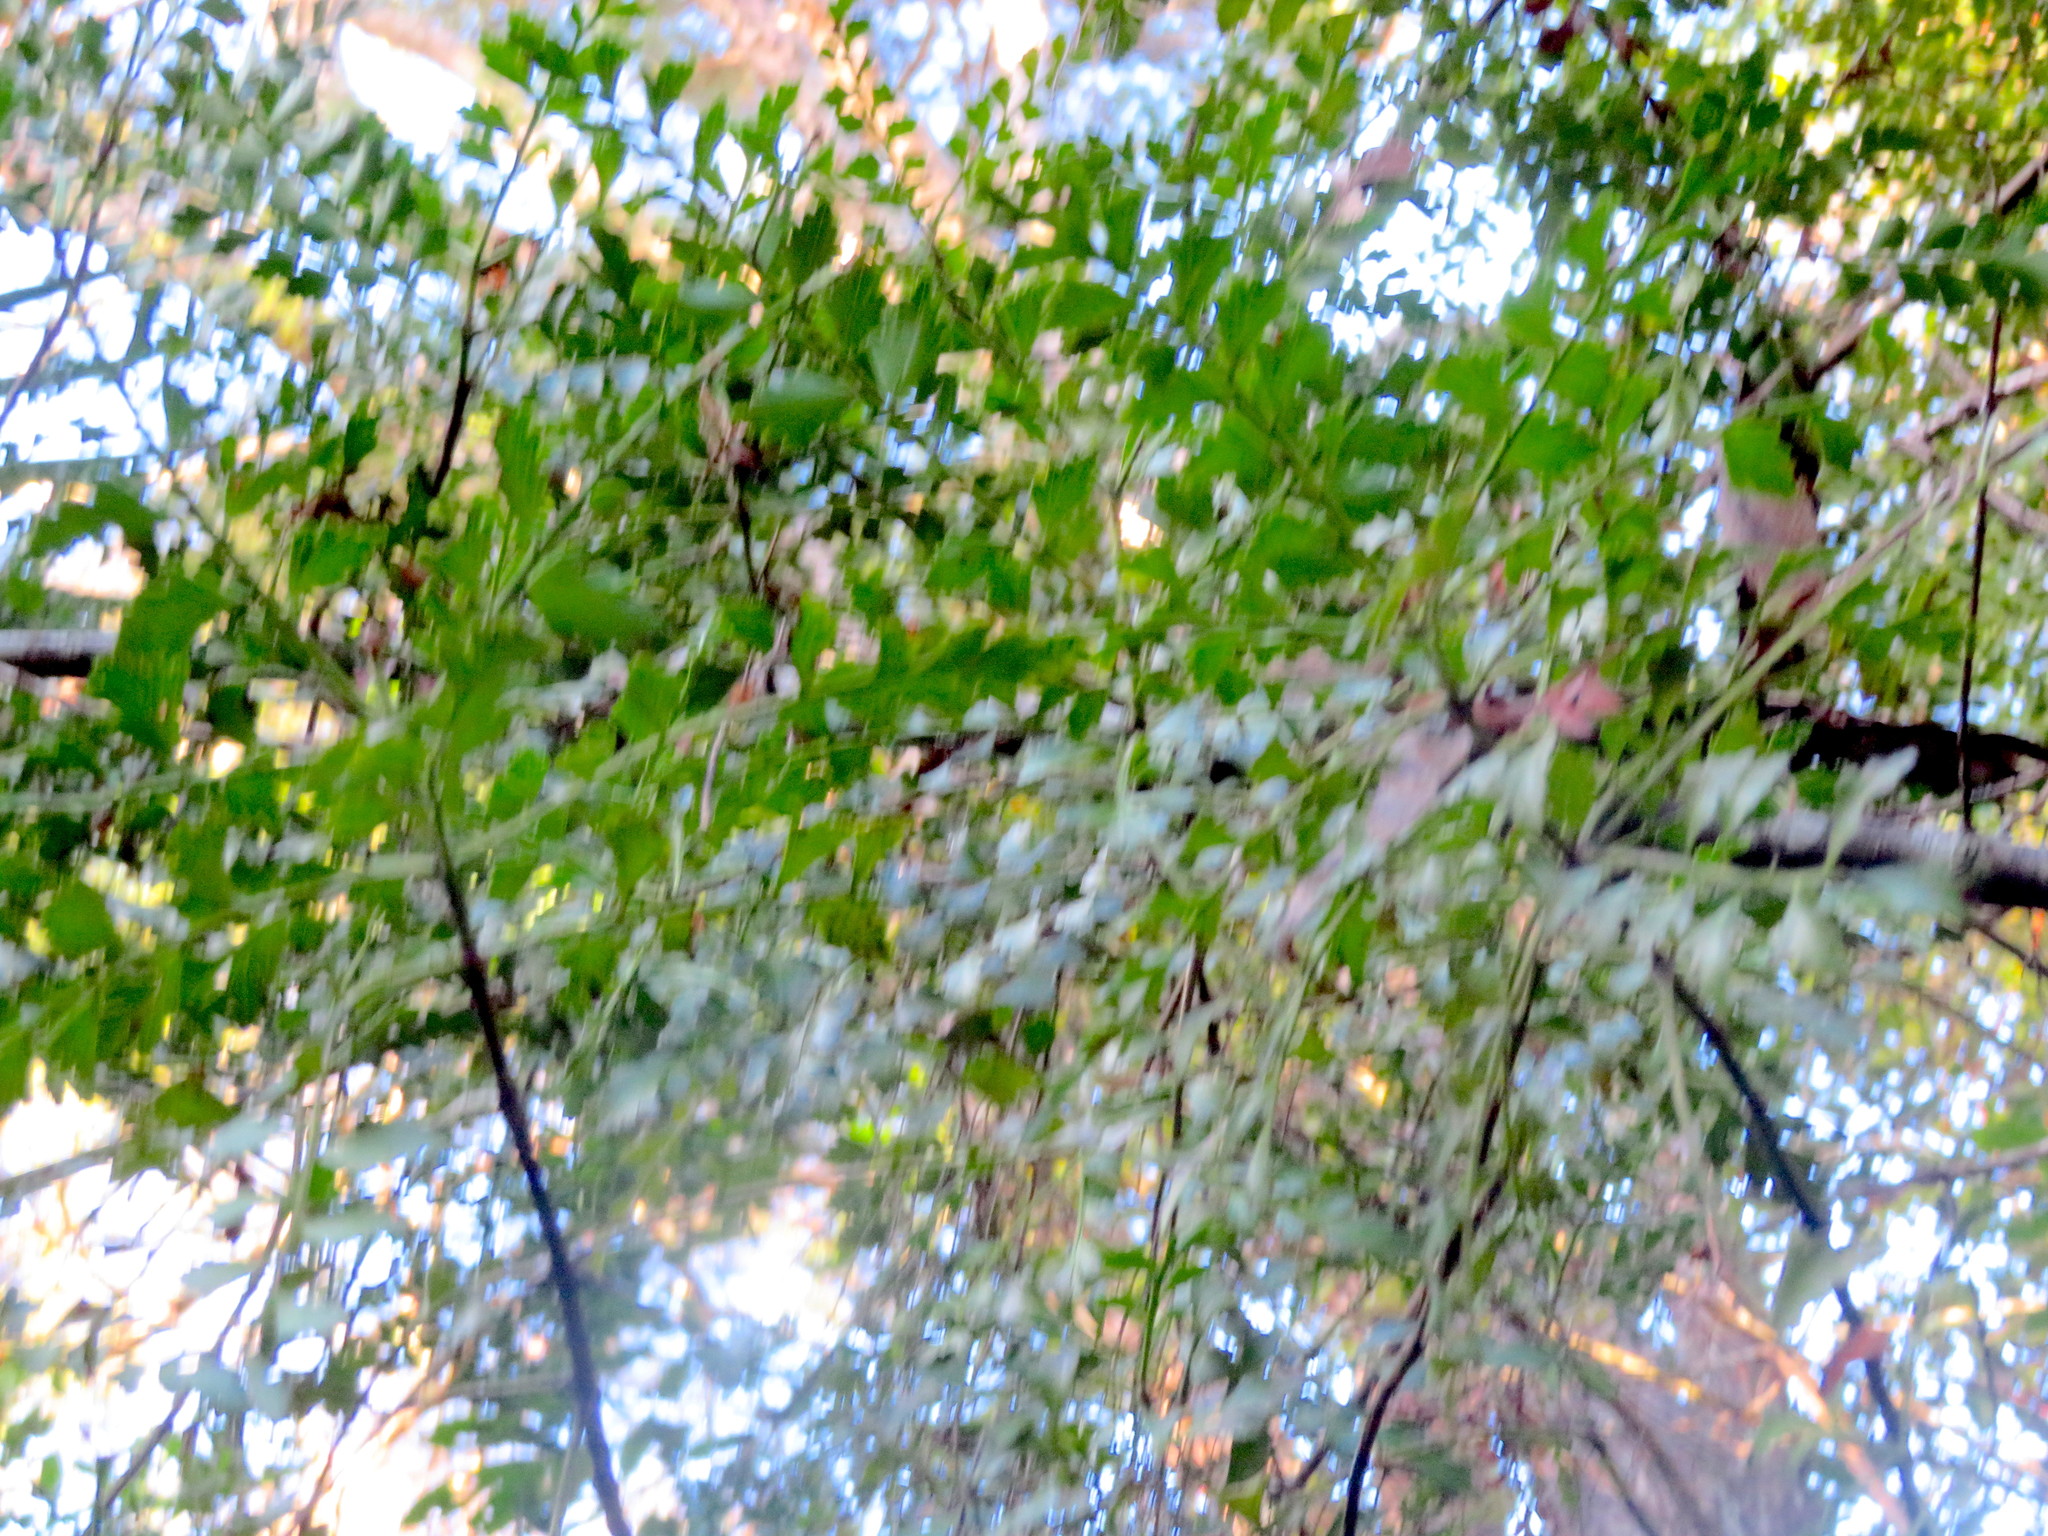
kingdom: Plantae
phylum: Tracheophyta
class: Pinopsida
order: Pinales
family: Phyllocladaceae
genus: Phyllocladus
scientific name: Phyllocladus trichomanoides
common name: Celery pine
